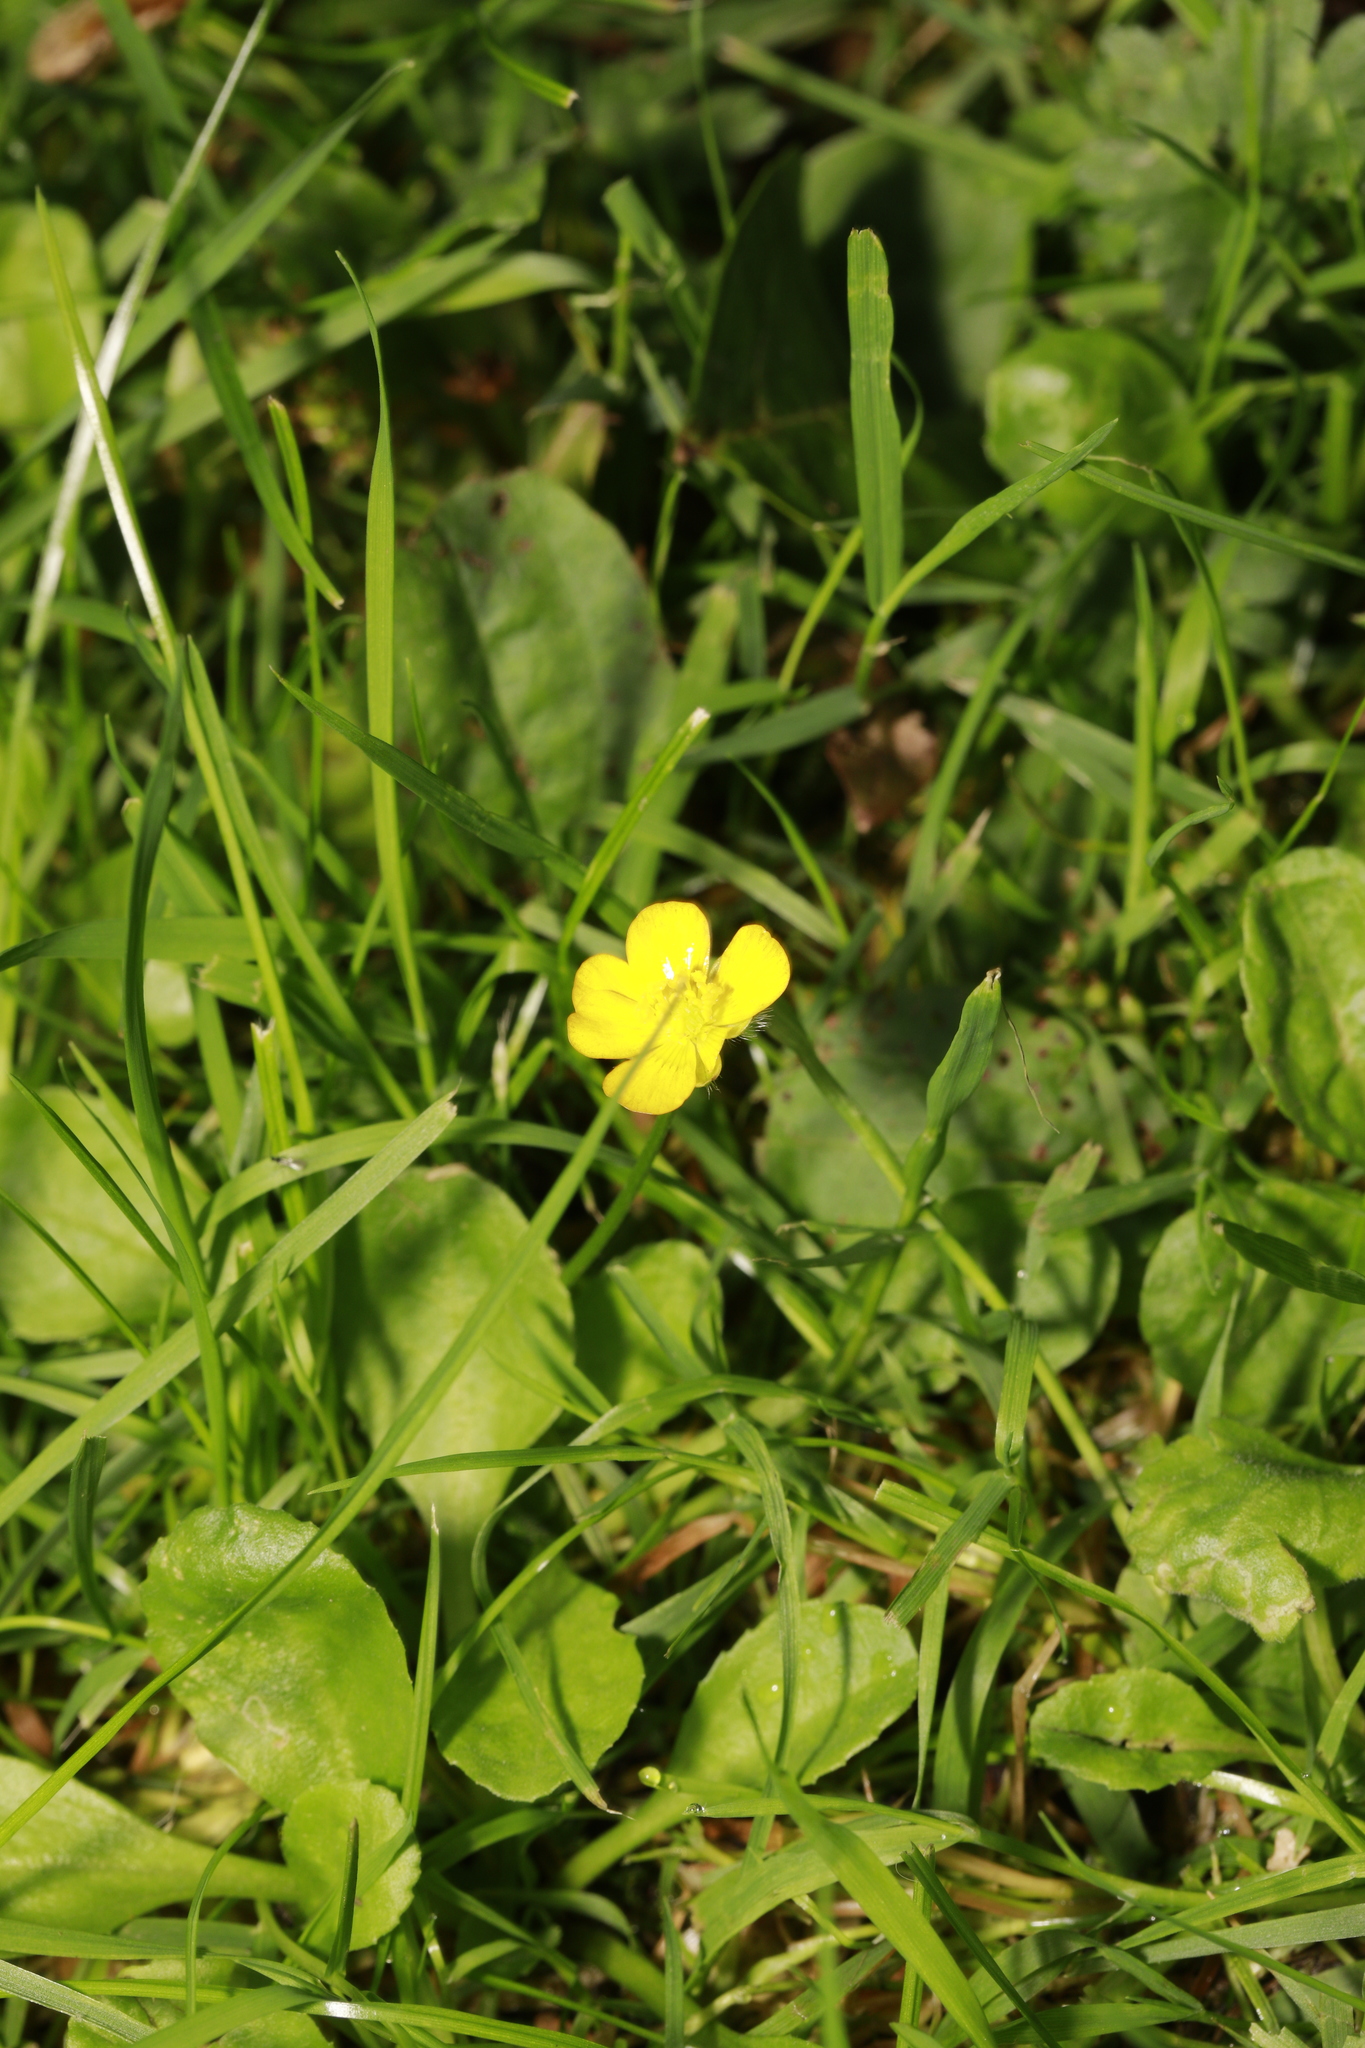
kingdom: Plantae
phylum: Tracheophyta
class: Magnoliopsida
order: Ranunculales
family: Ranunculaceae
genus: Ranunculus
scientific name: Ranunculus repens
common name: Creeping buttercup
